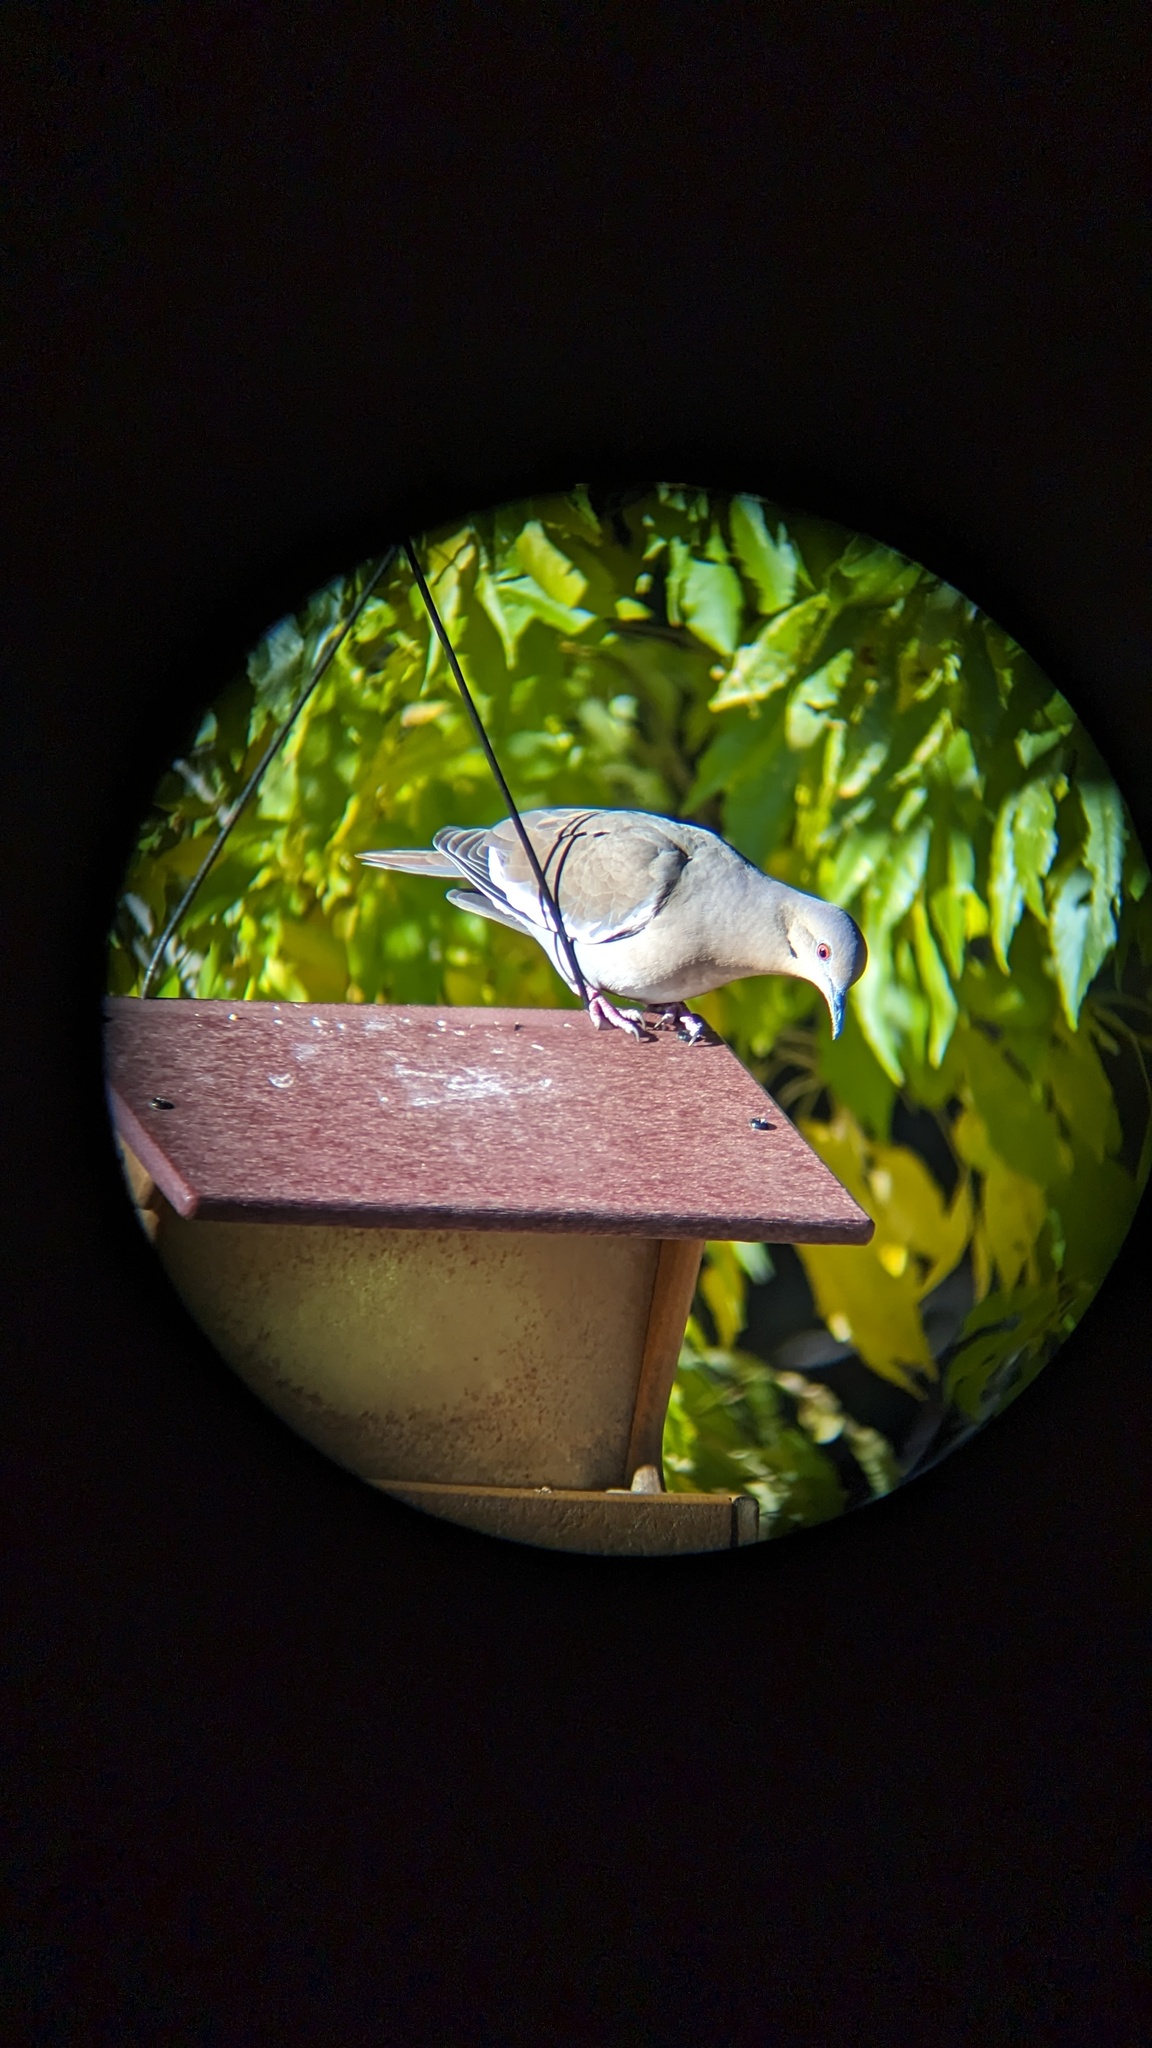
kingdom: Animalia
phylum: Chordata
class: Aves
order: Columbiformes
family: Columbidae
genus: Zenaida
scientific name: Zenaida asiatica
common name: White-winged dove
